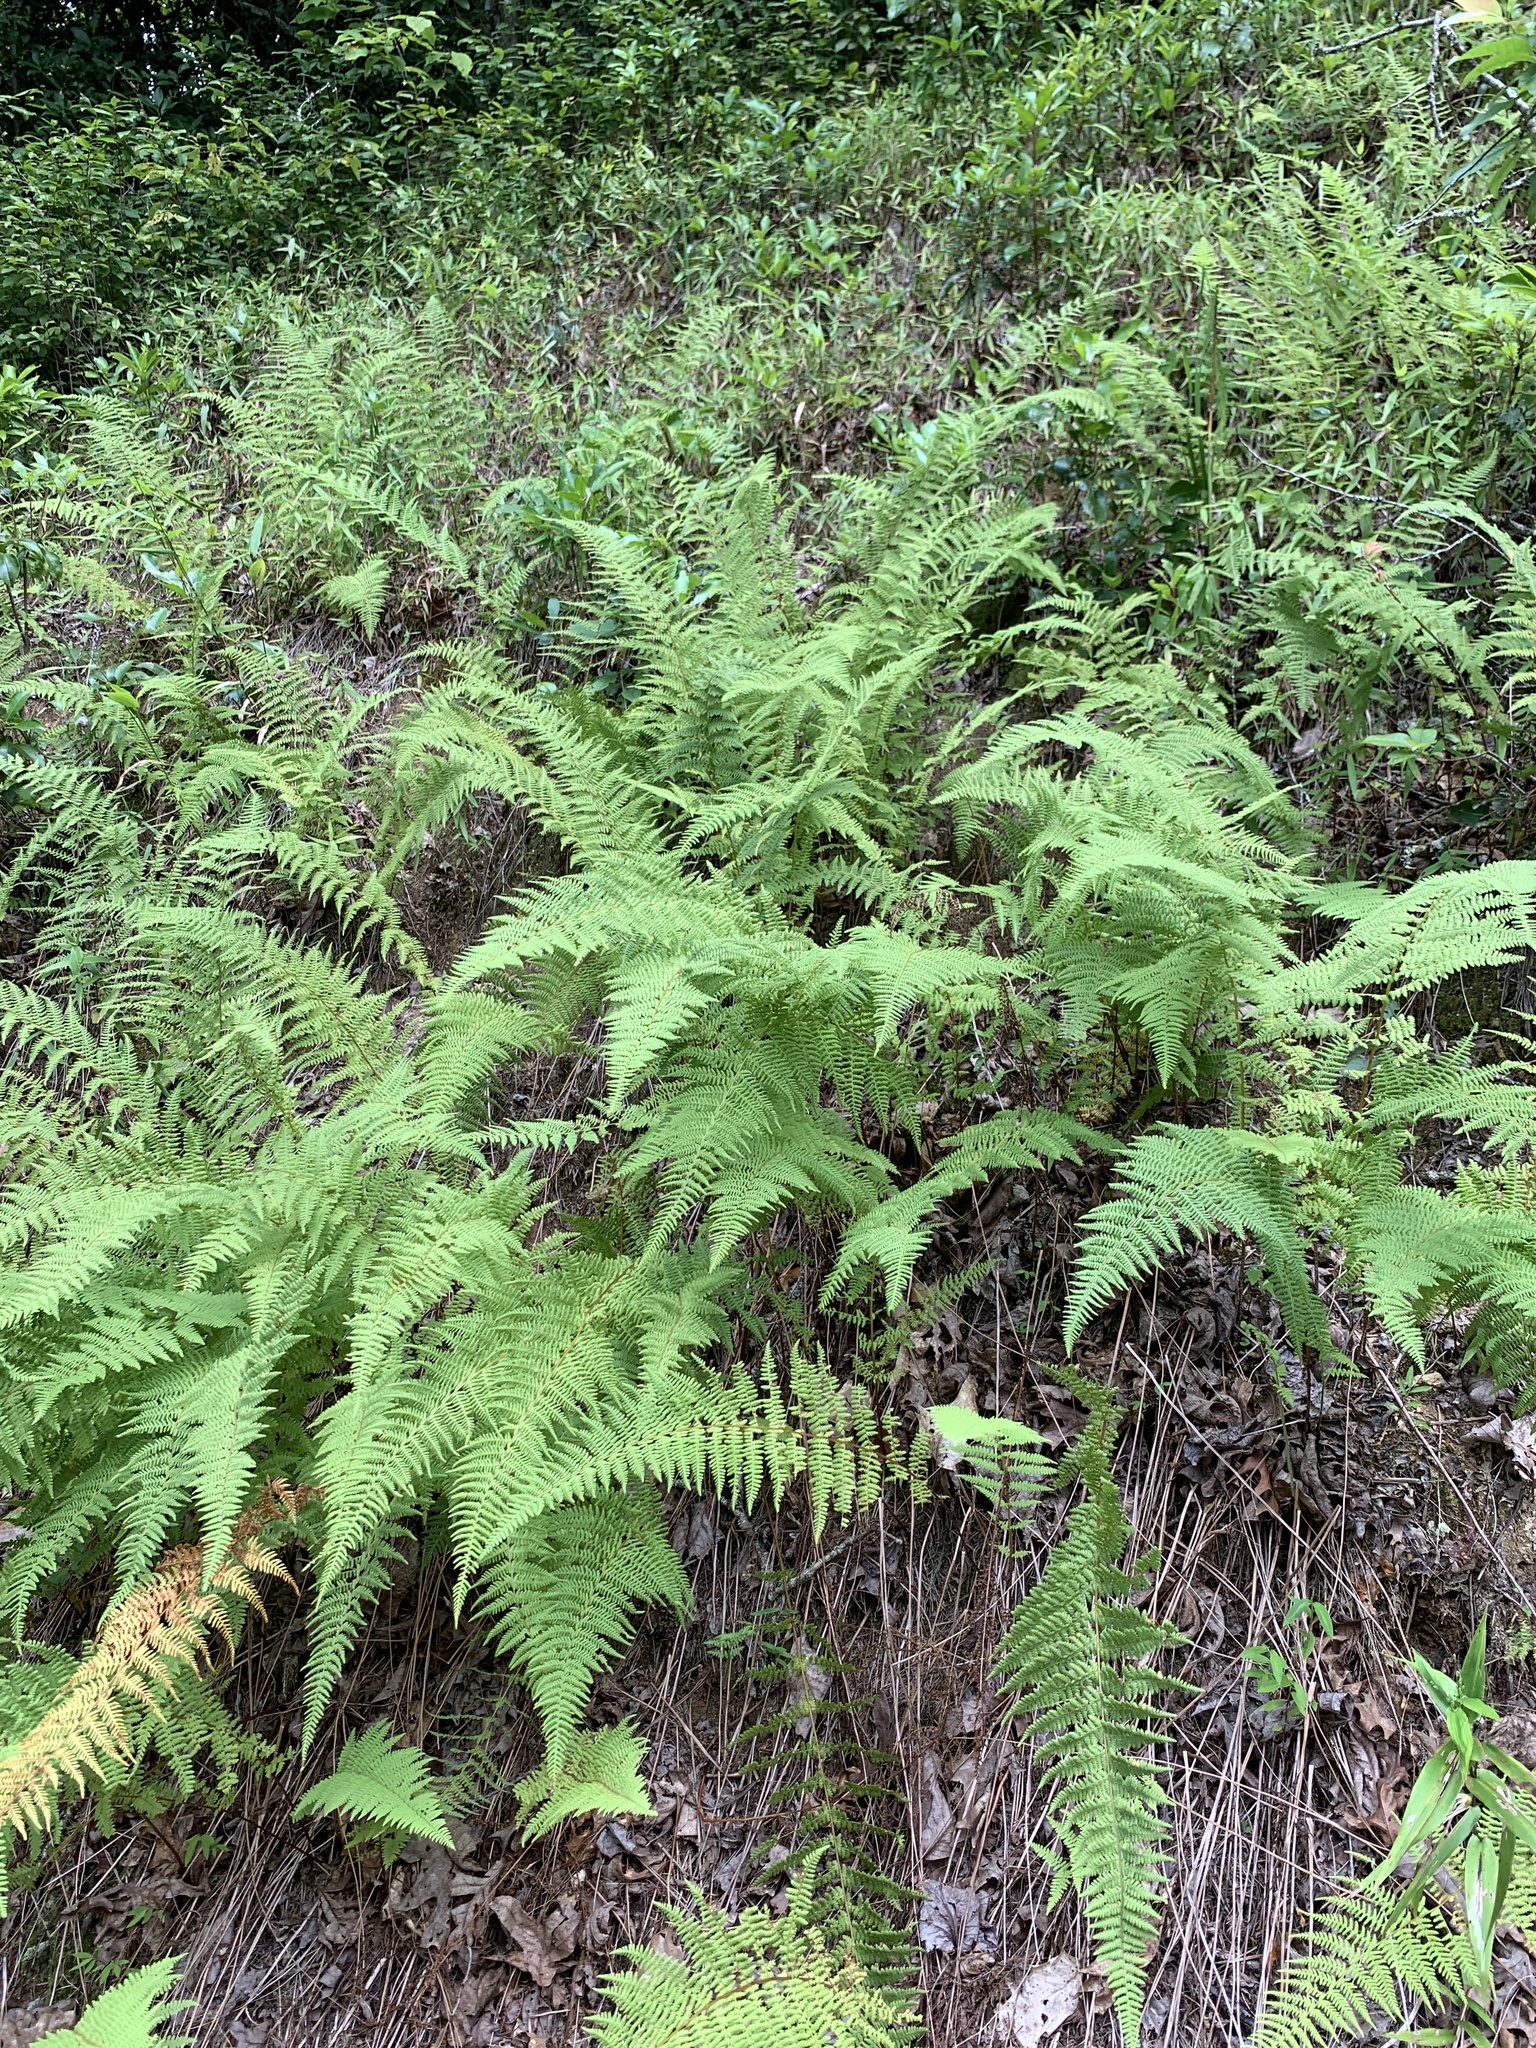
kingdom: Plantae
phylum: Tracheophyta
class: Polypodiopsida
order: Polypodiales
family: Dennstaedtiaceae
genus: Sitobolium
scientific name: Sitobolium punctilobum
